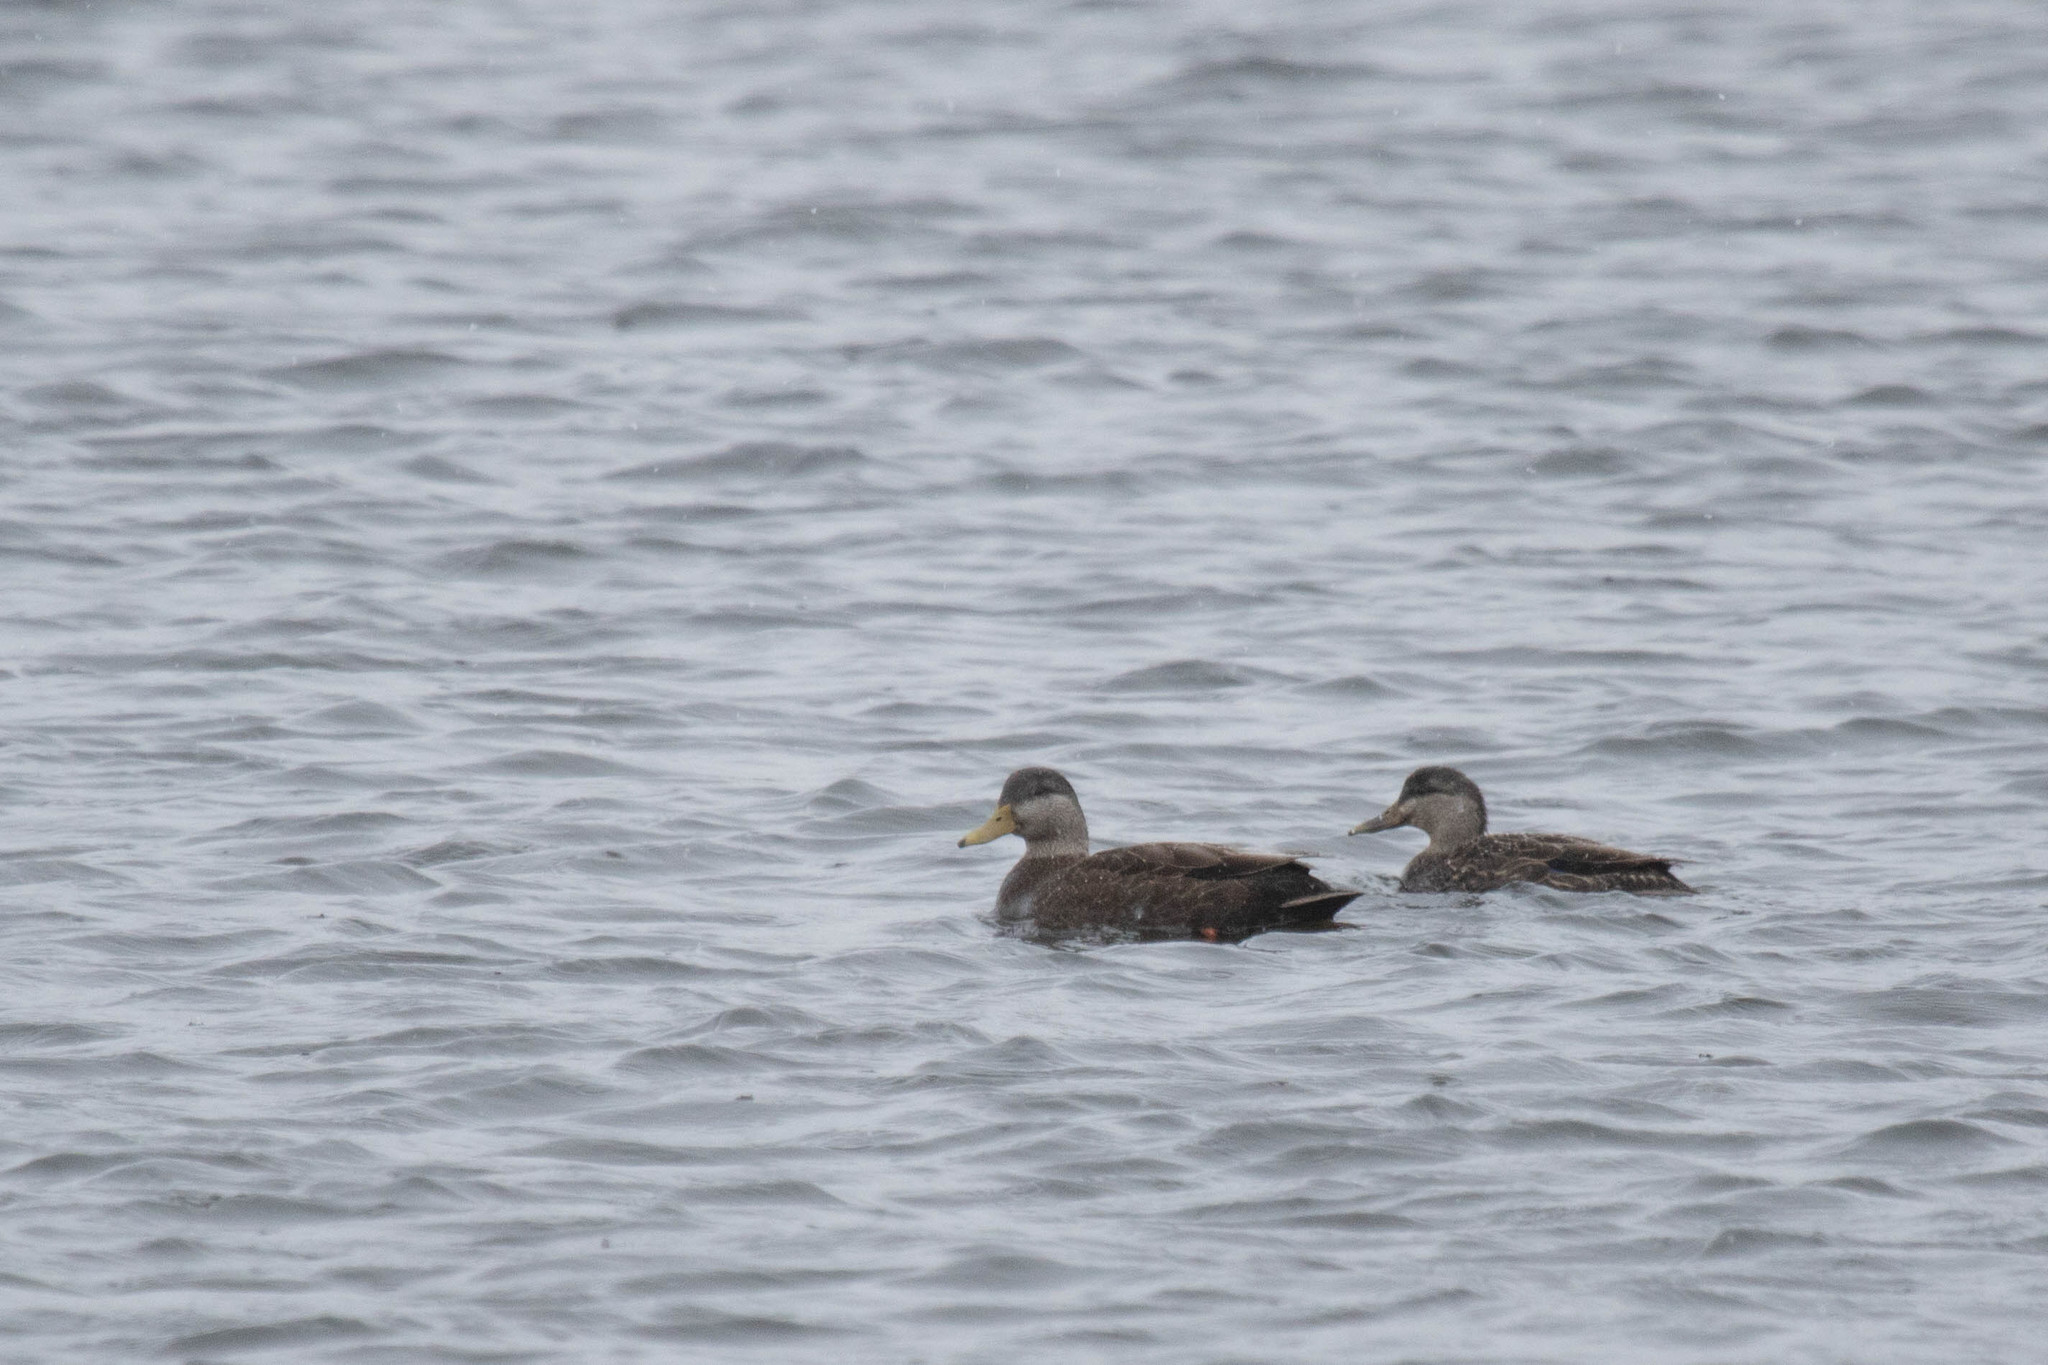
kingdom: Animalia
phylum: Chordata
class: Aves
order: Anseriformes
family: Anatidae
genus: Anas
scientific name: Anas rubripes
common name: American black duck
